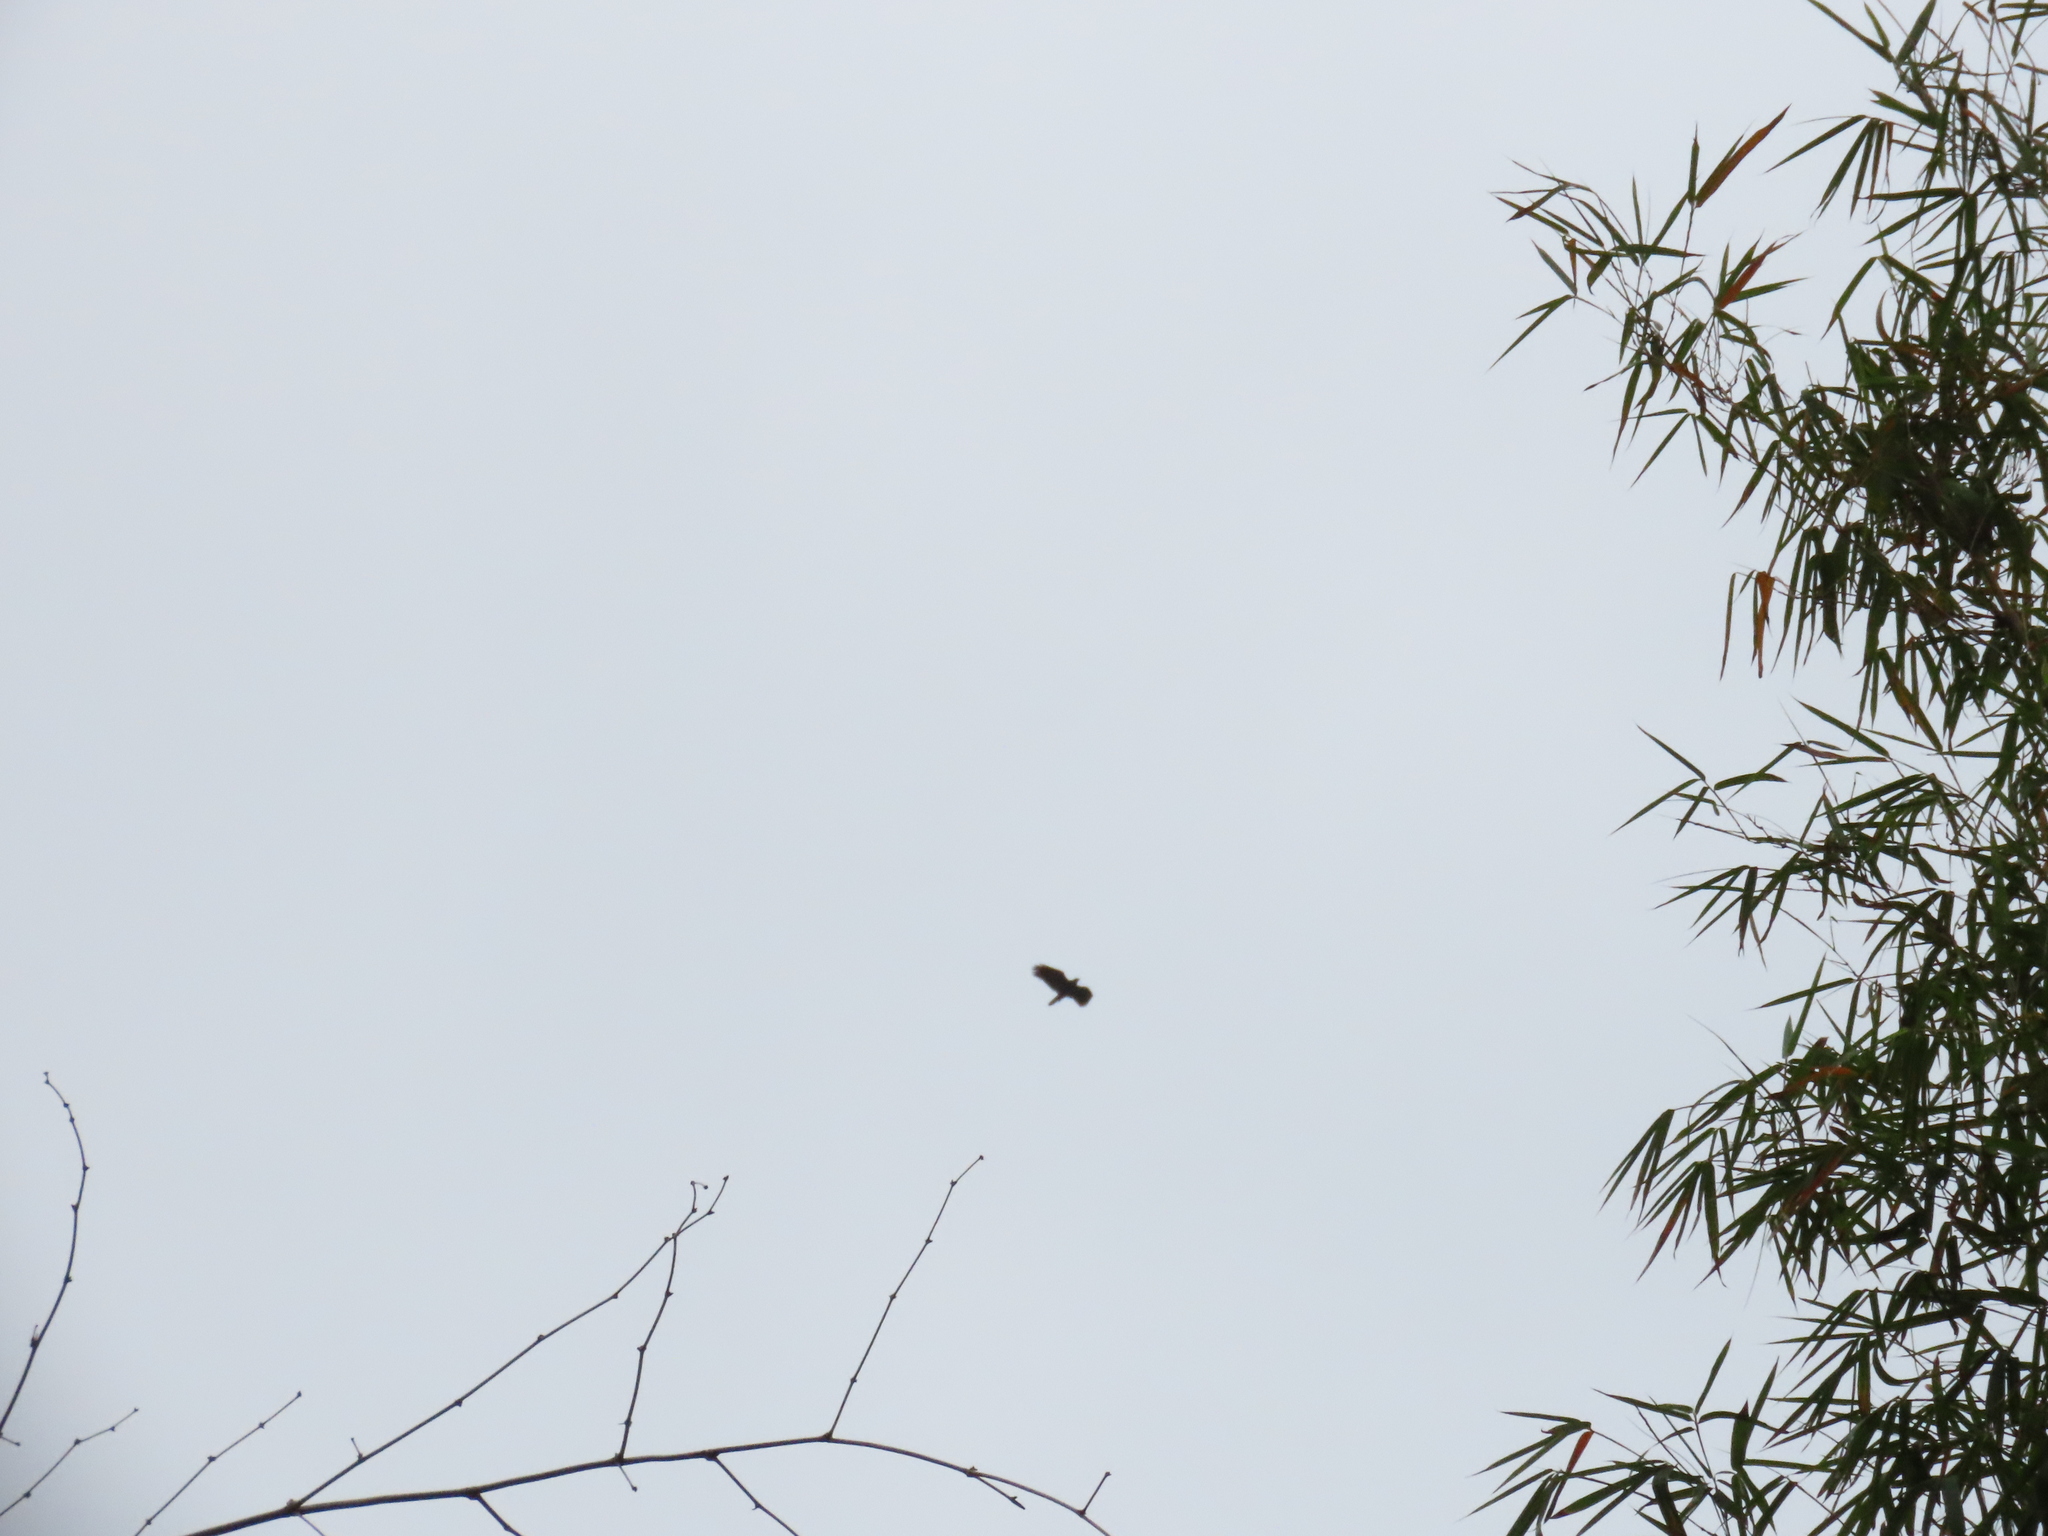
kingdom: Animalia
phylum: Chordata
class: Aves
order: Accipitriformes
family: Accipitridae
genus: Spilornis
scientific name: Spilornis cheela
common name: Crested serpent eagle
